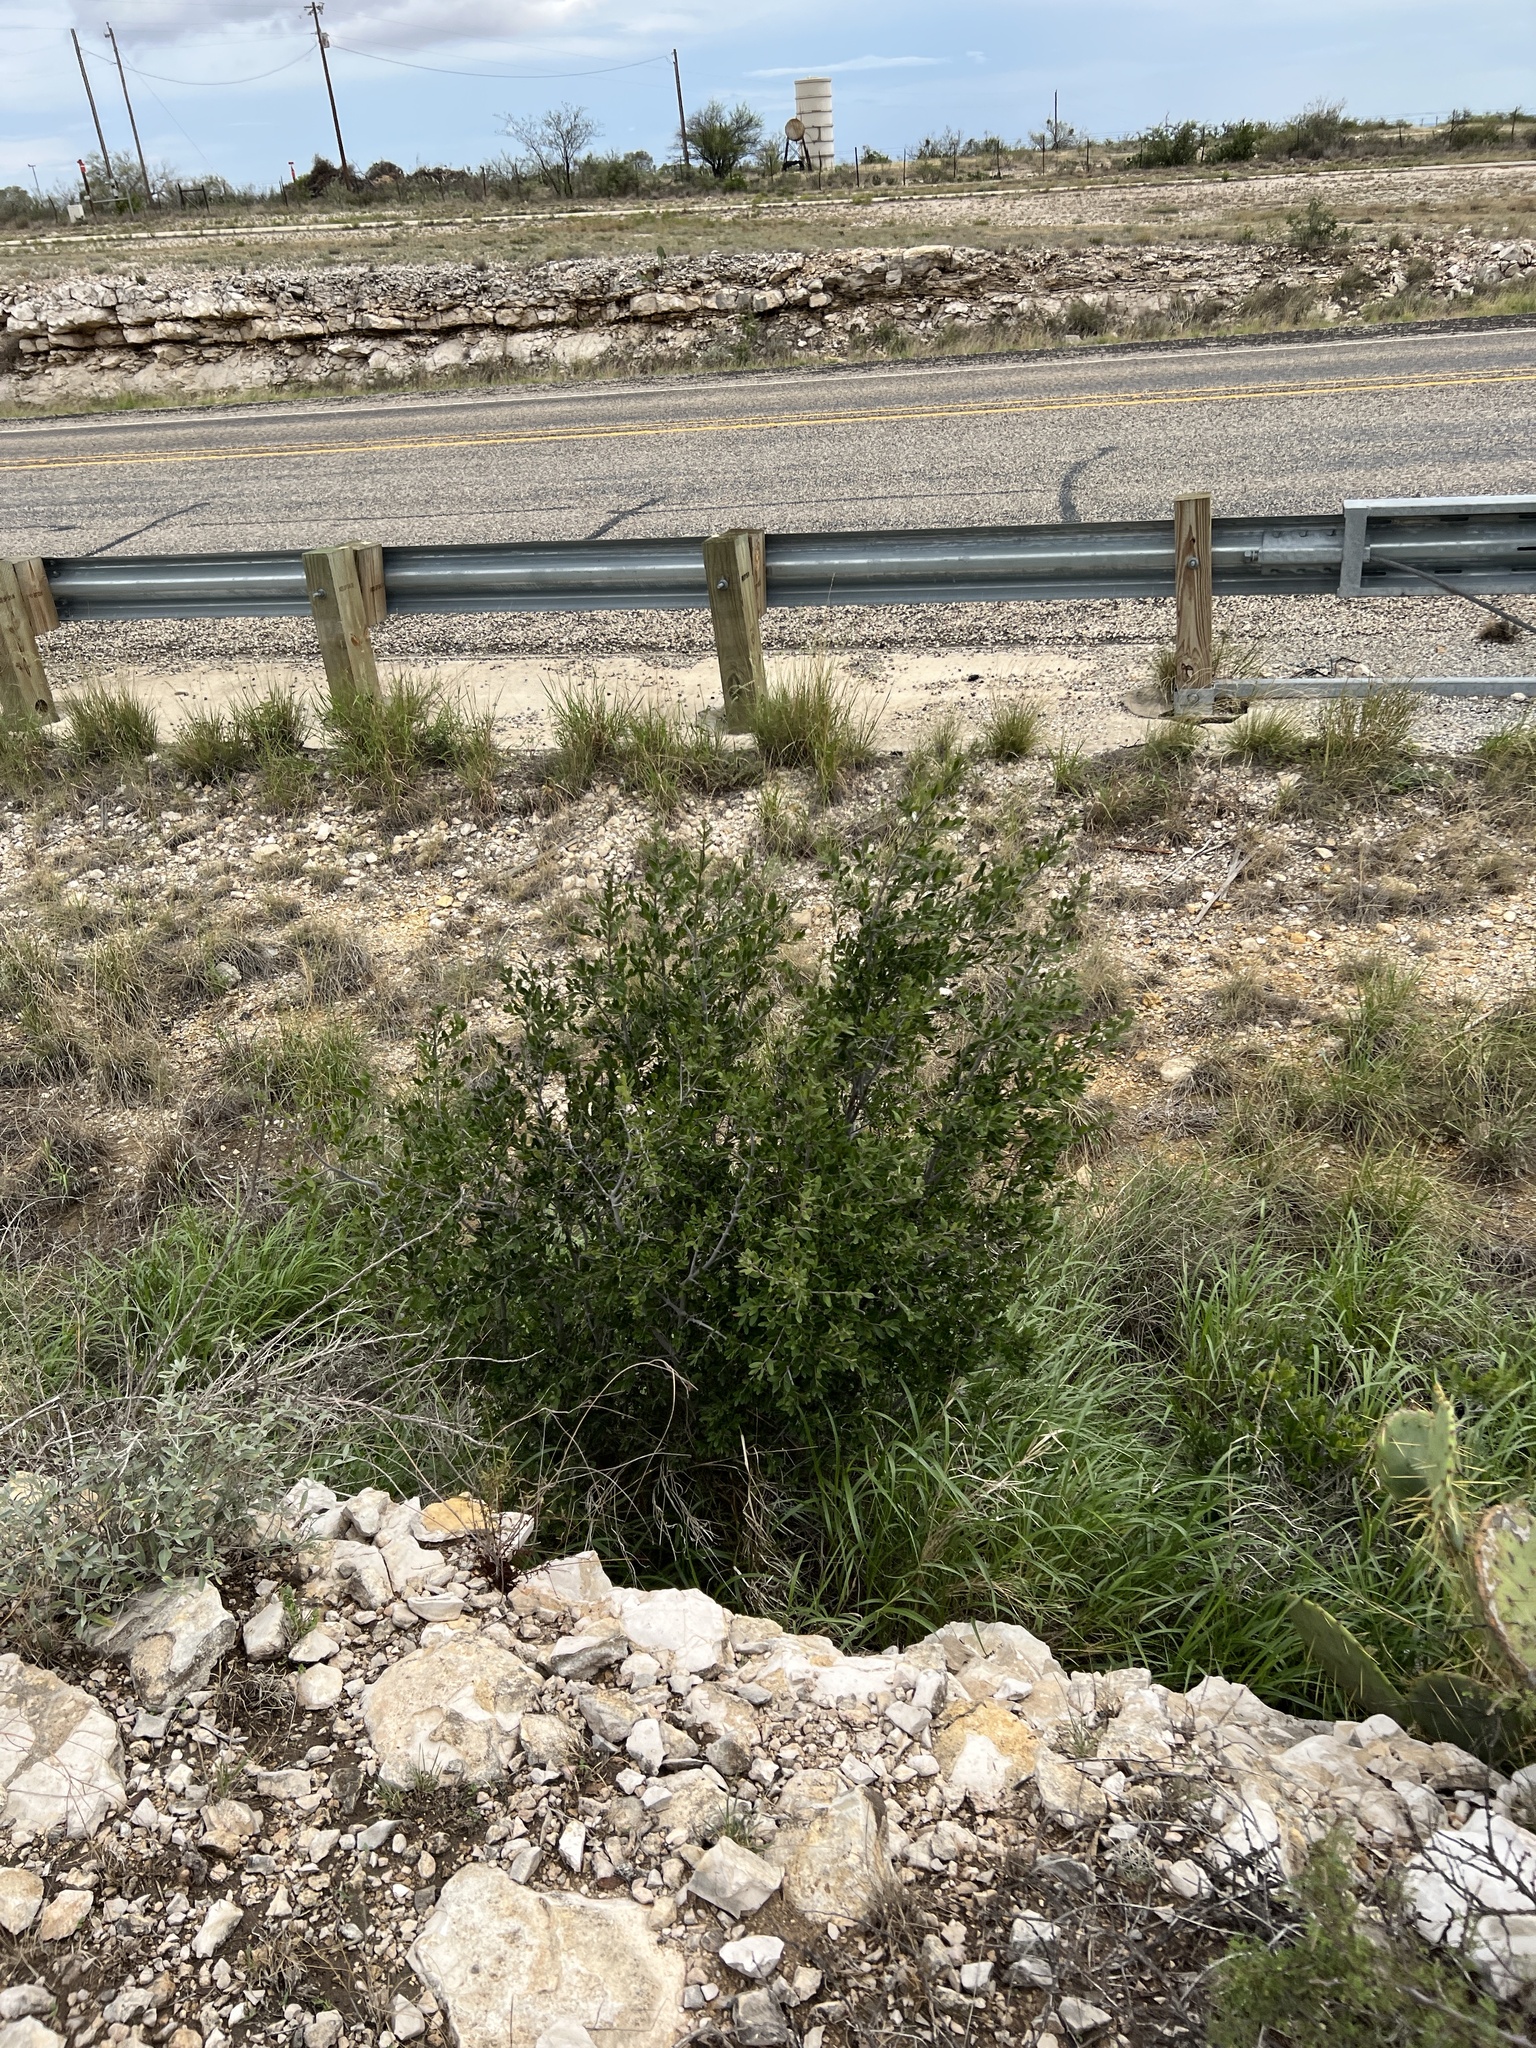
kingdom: Plantae
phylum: Tracheophyta
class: Magnoliopsida
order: Ericales
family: Ebenaceae
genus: Diospyros
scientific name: Diospyros texana
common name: Texas persimmon
